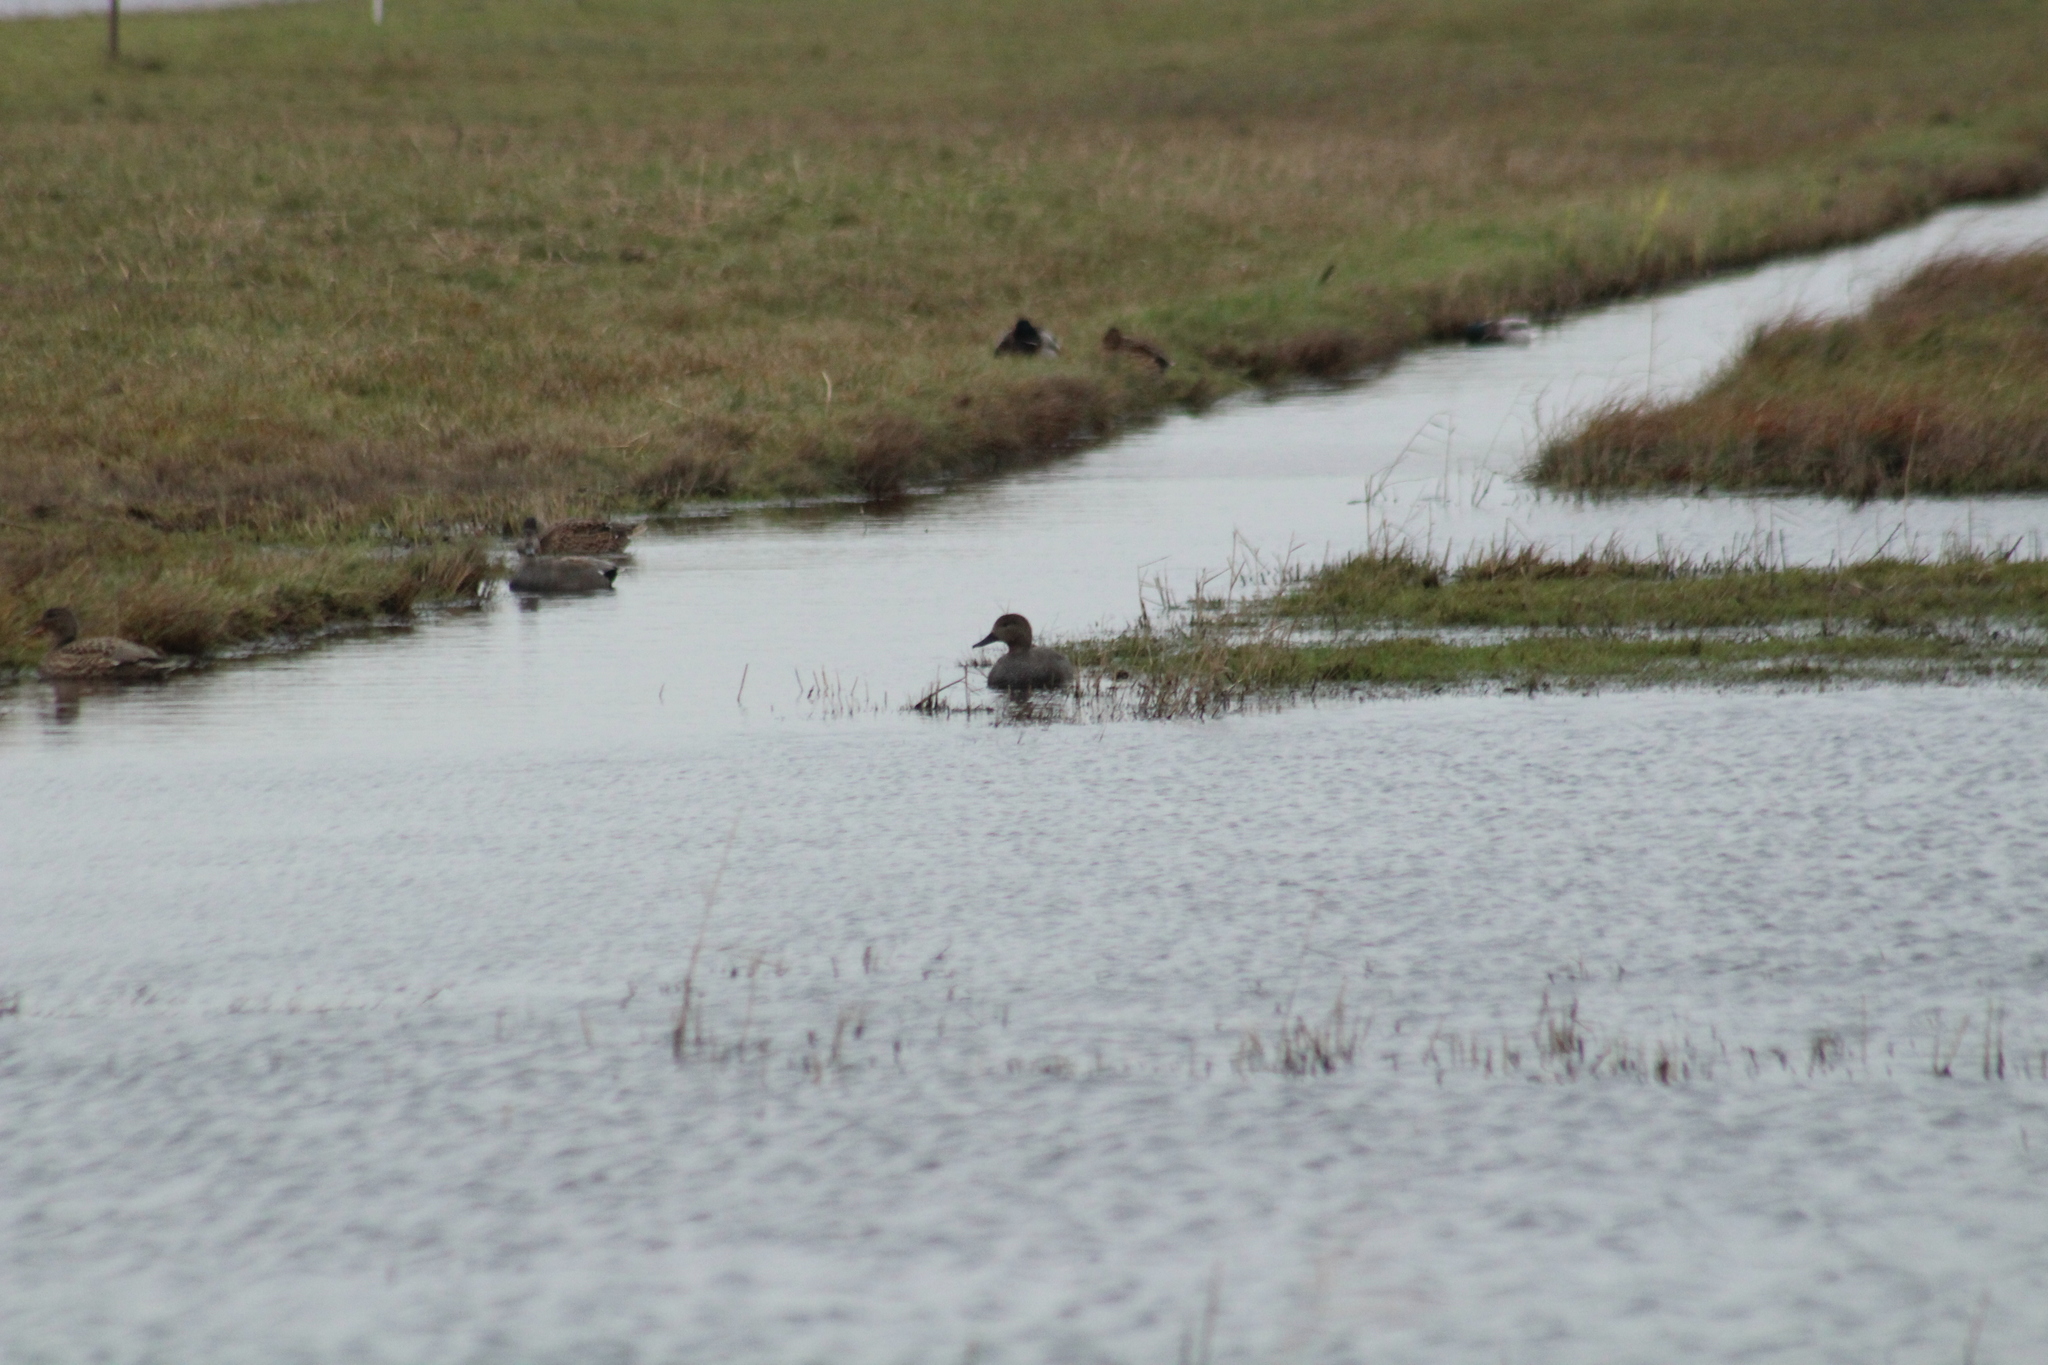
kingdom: Animalia
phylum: Chordata
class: Aves
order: Anseriformes
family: Anatidae
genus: Mareca
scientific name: Mareca strepera
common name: Gadwall
